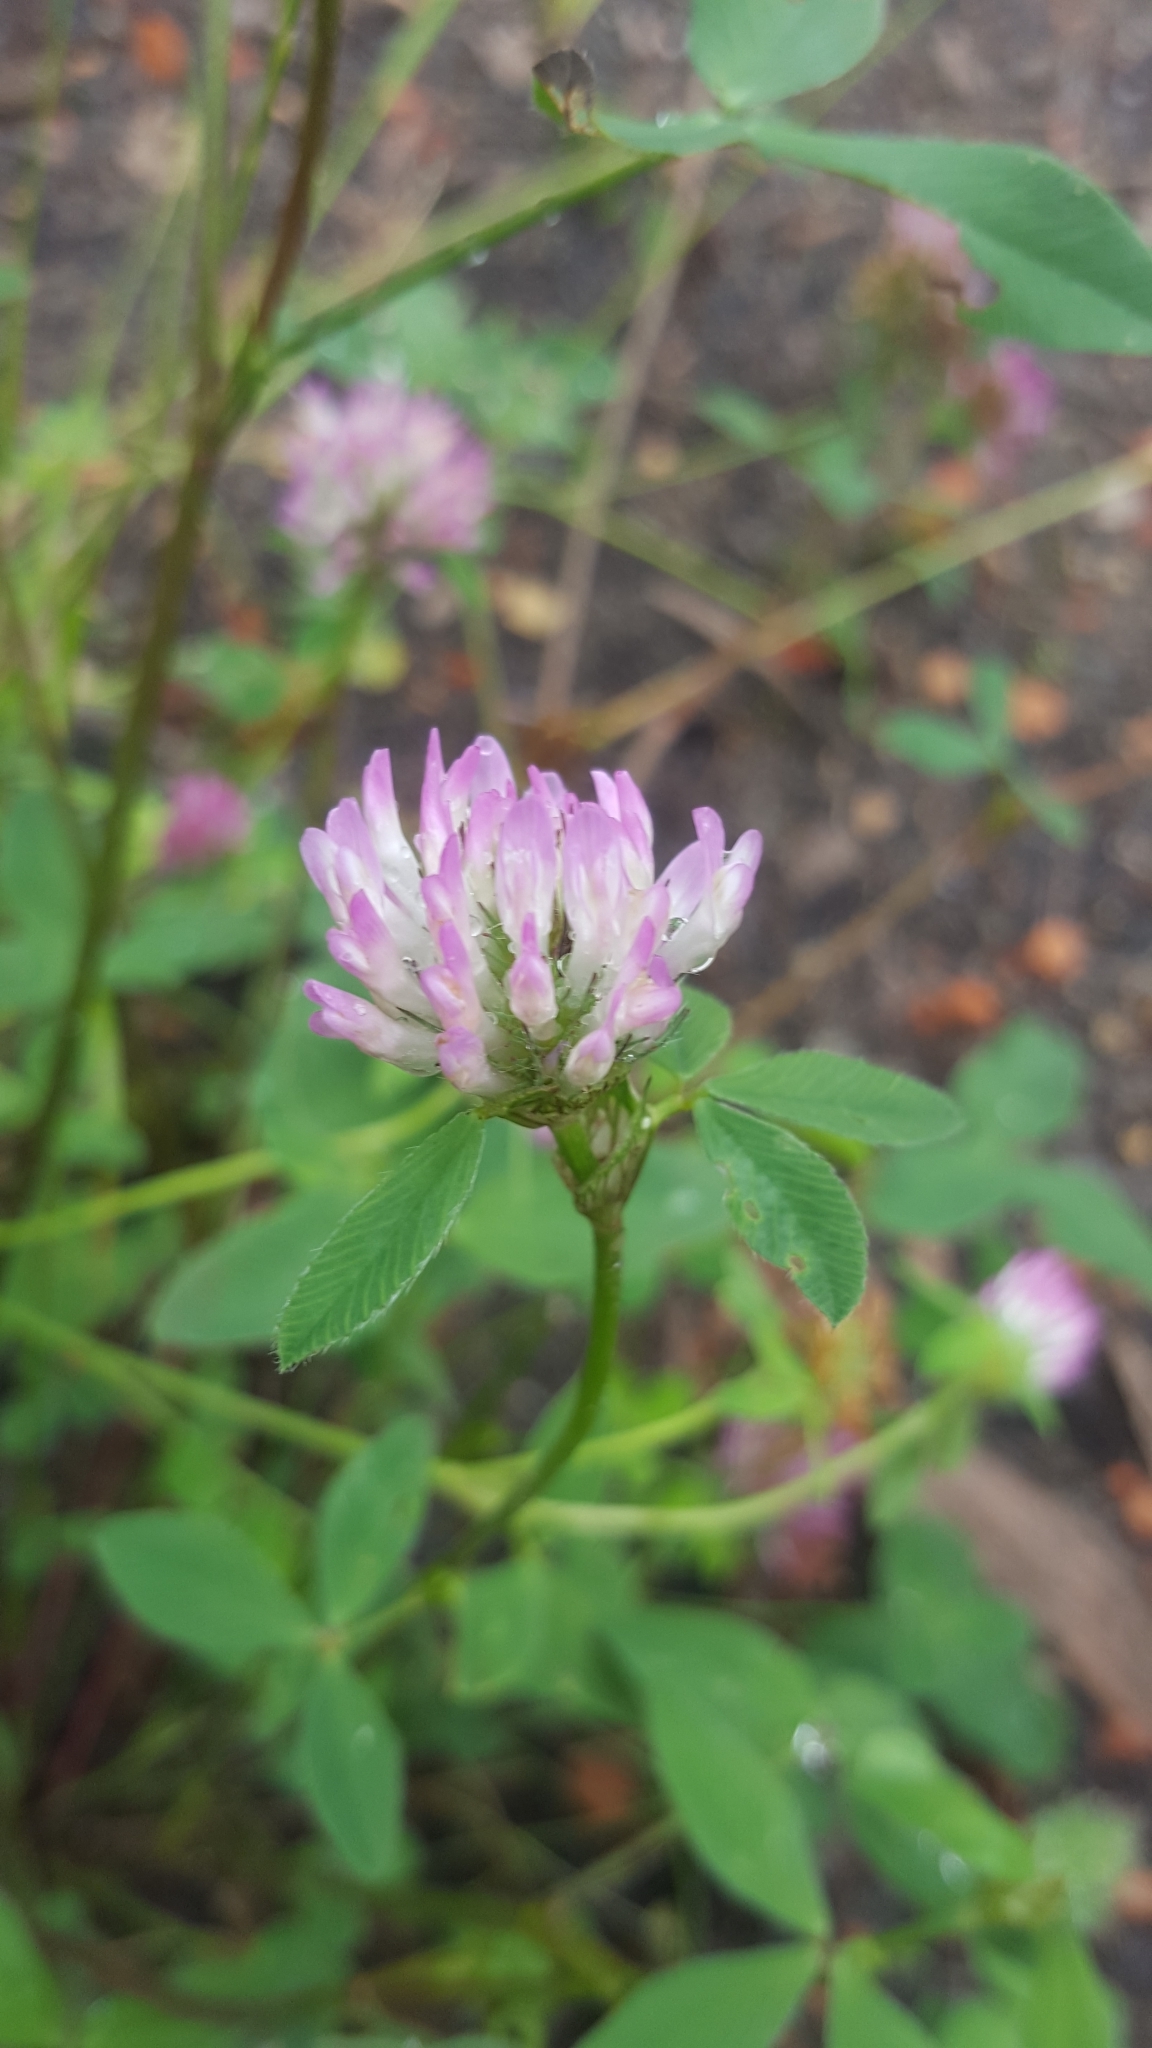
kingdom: Plantae
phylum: Tracheophyta
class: Magnoliopsida
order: Fabales
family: Fabaceae
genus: Trifolium
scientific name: Trifolium pratense
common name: Red clover
